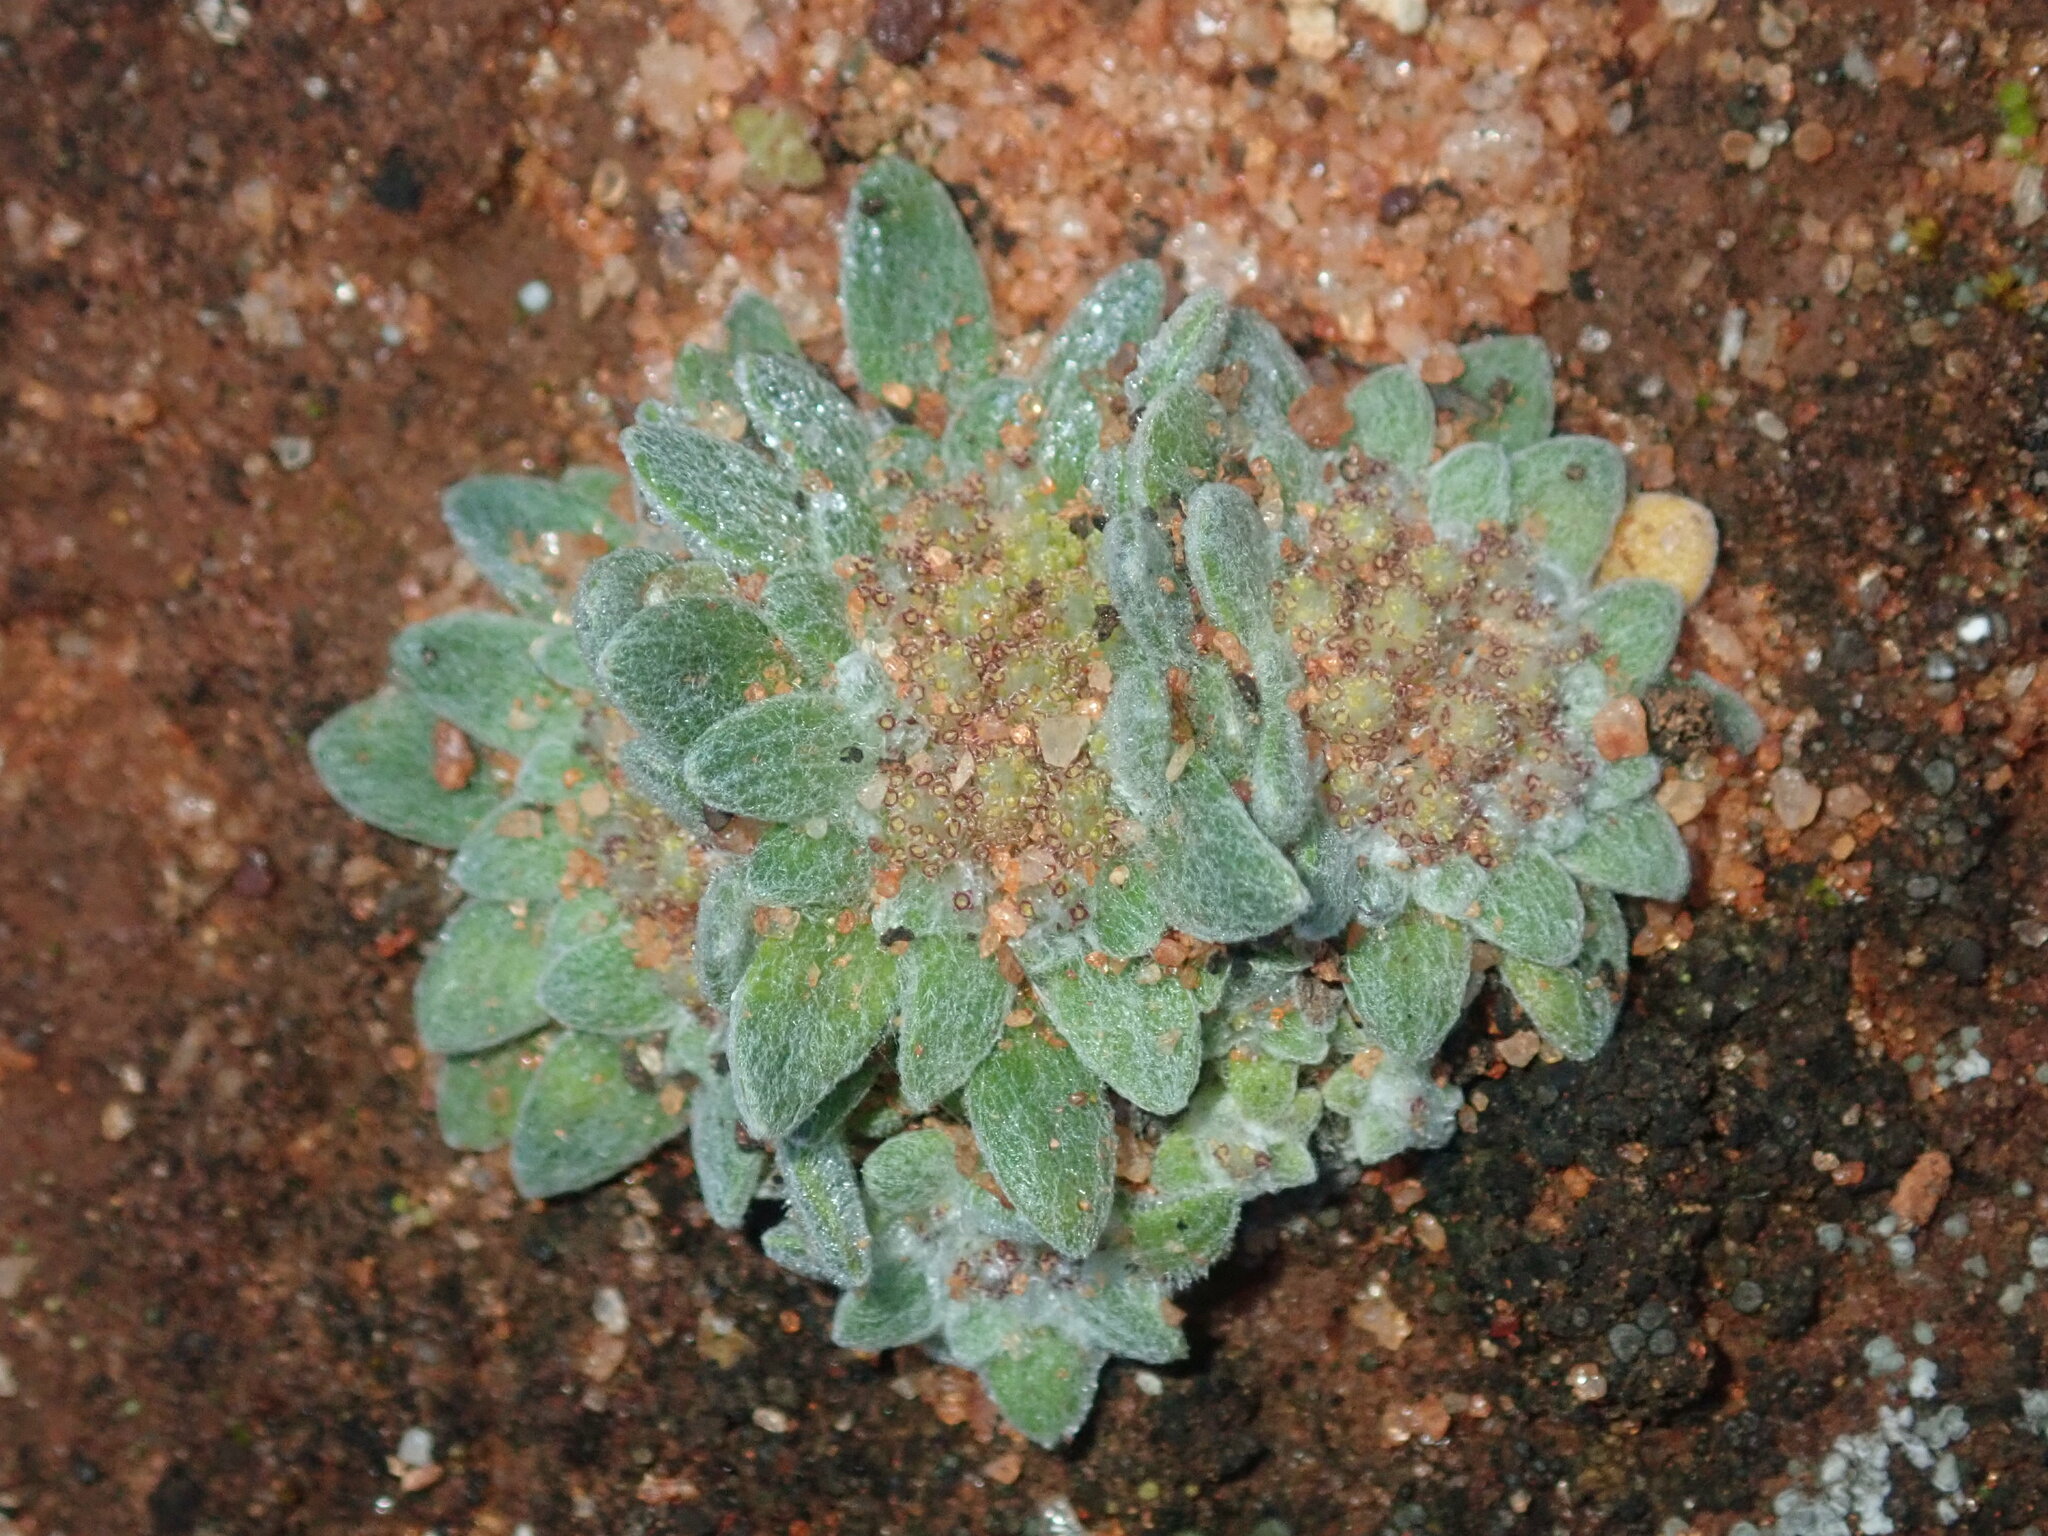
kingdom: Plantae
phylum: Tracheophyta
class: Magnoliopsida
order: Asterales
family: Asteraceae
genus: Chthonocephalus
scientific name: Chthonocephalus pseudevax
